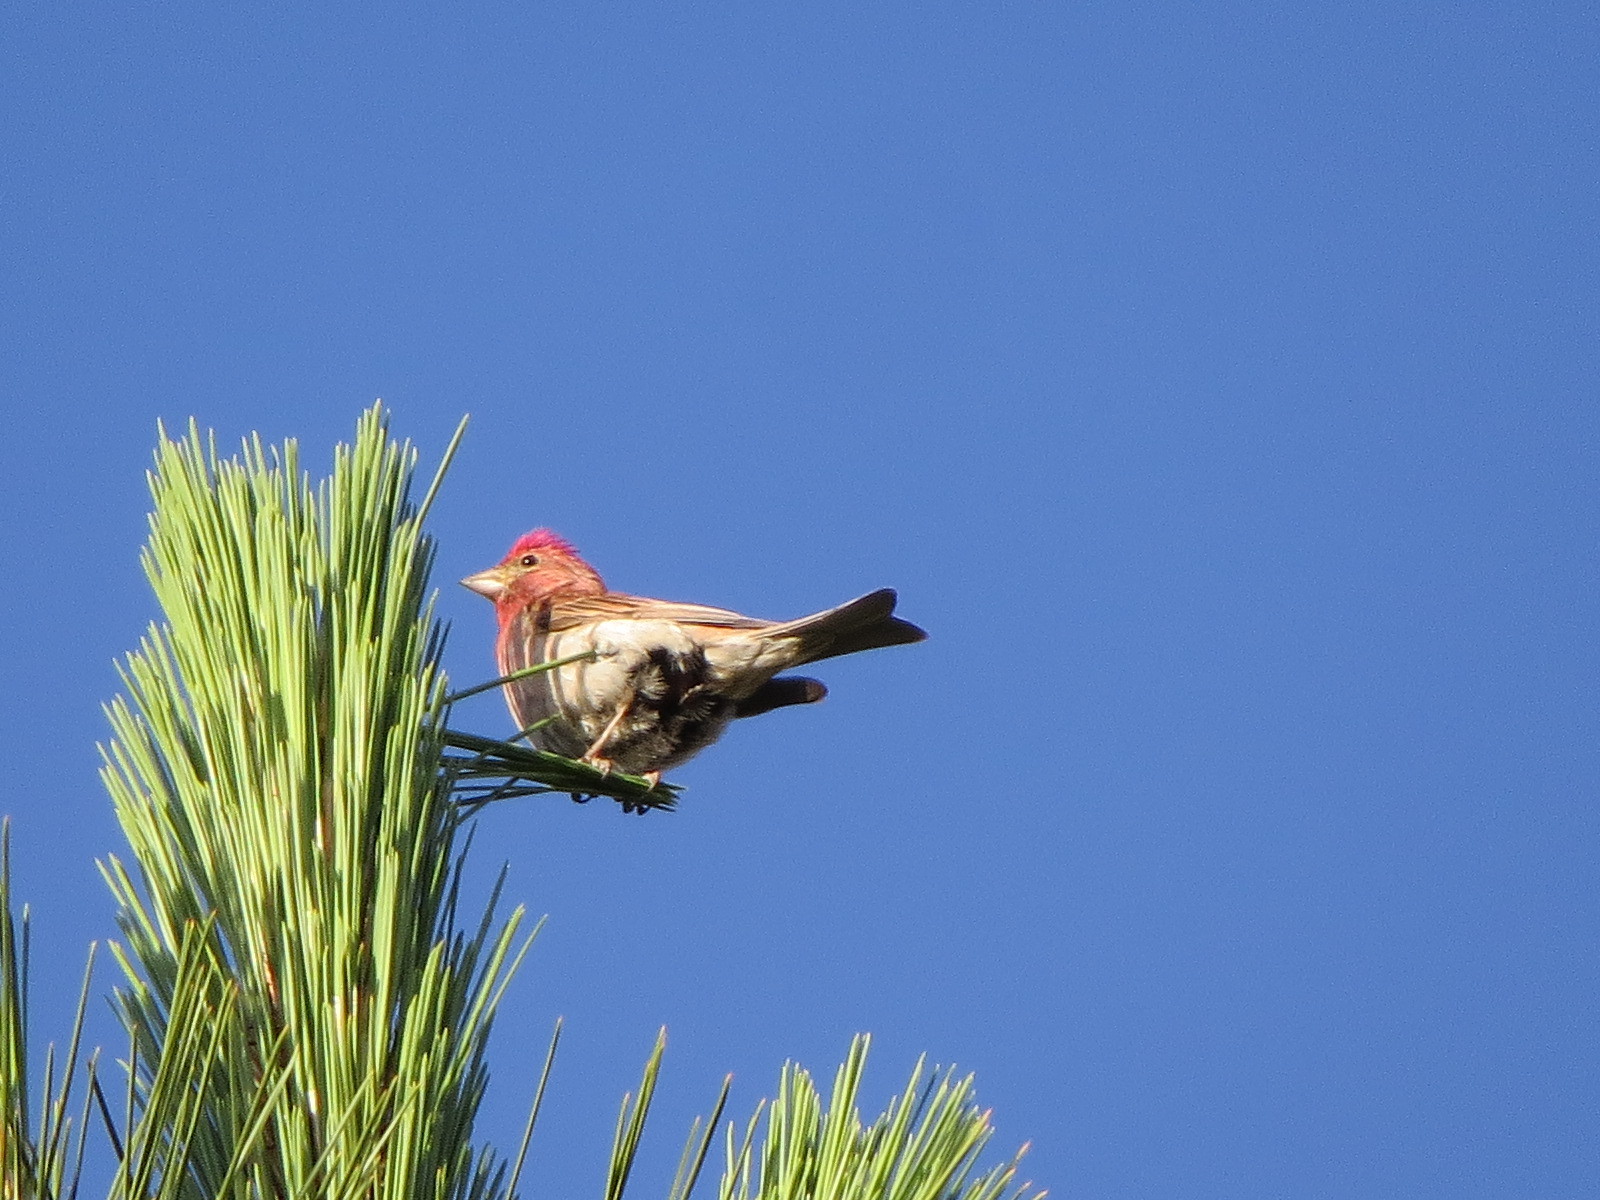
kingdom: Animalia
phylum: Chordata
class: Aves
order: Passeriformes
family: Fringillidae
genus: Haemorhous
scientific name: Haemorhous cassinii
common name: Cassin's finch
